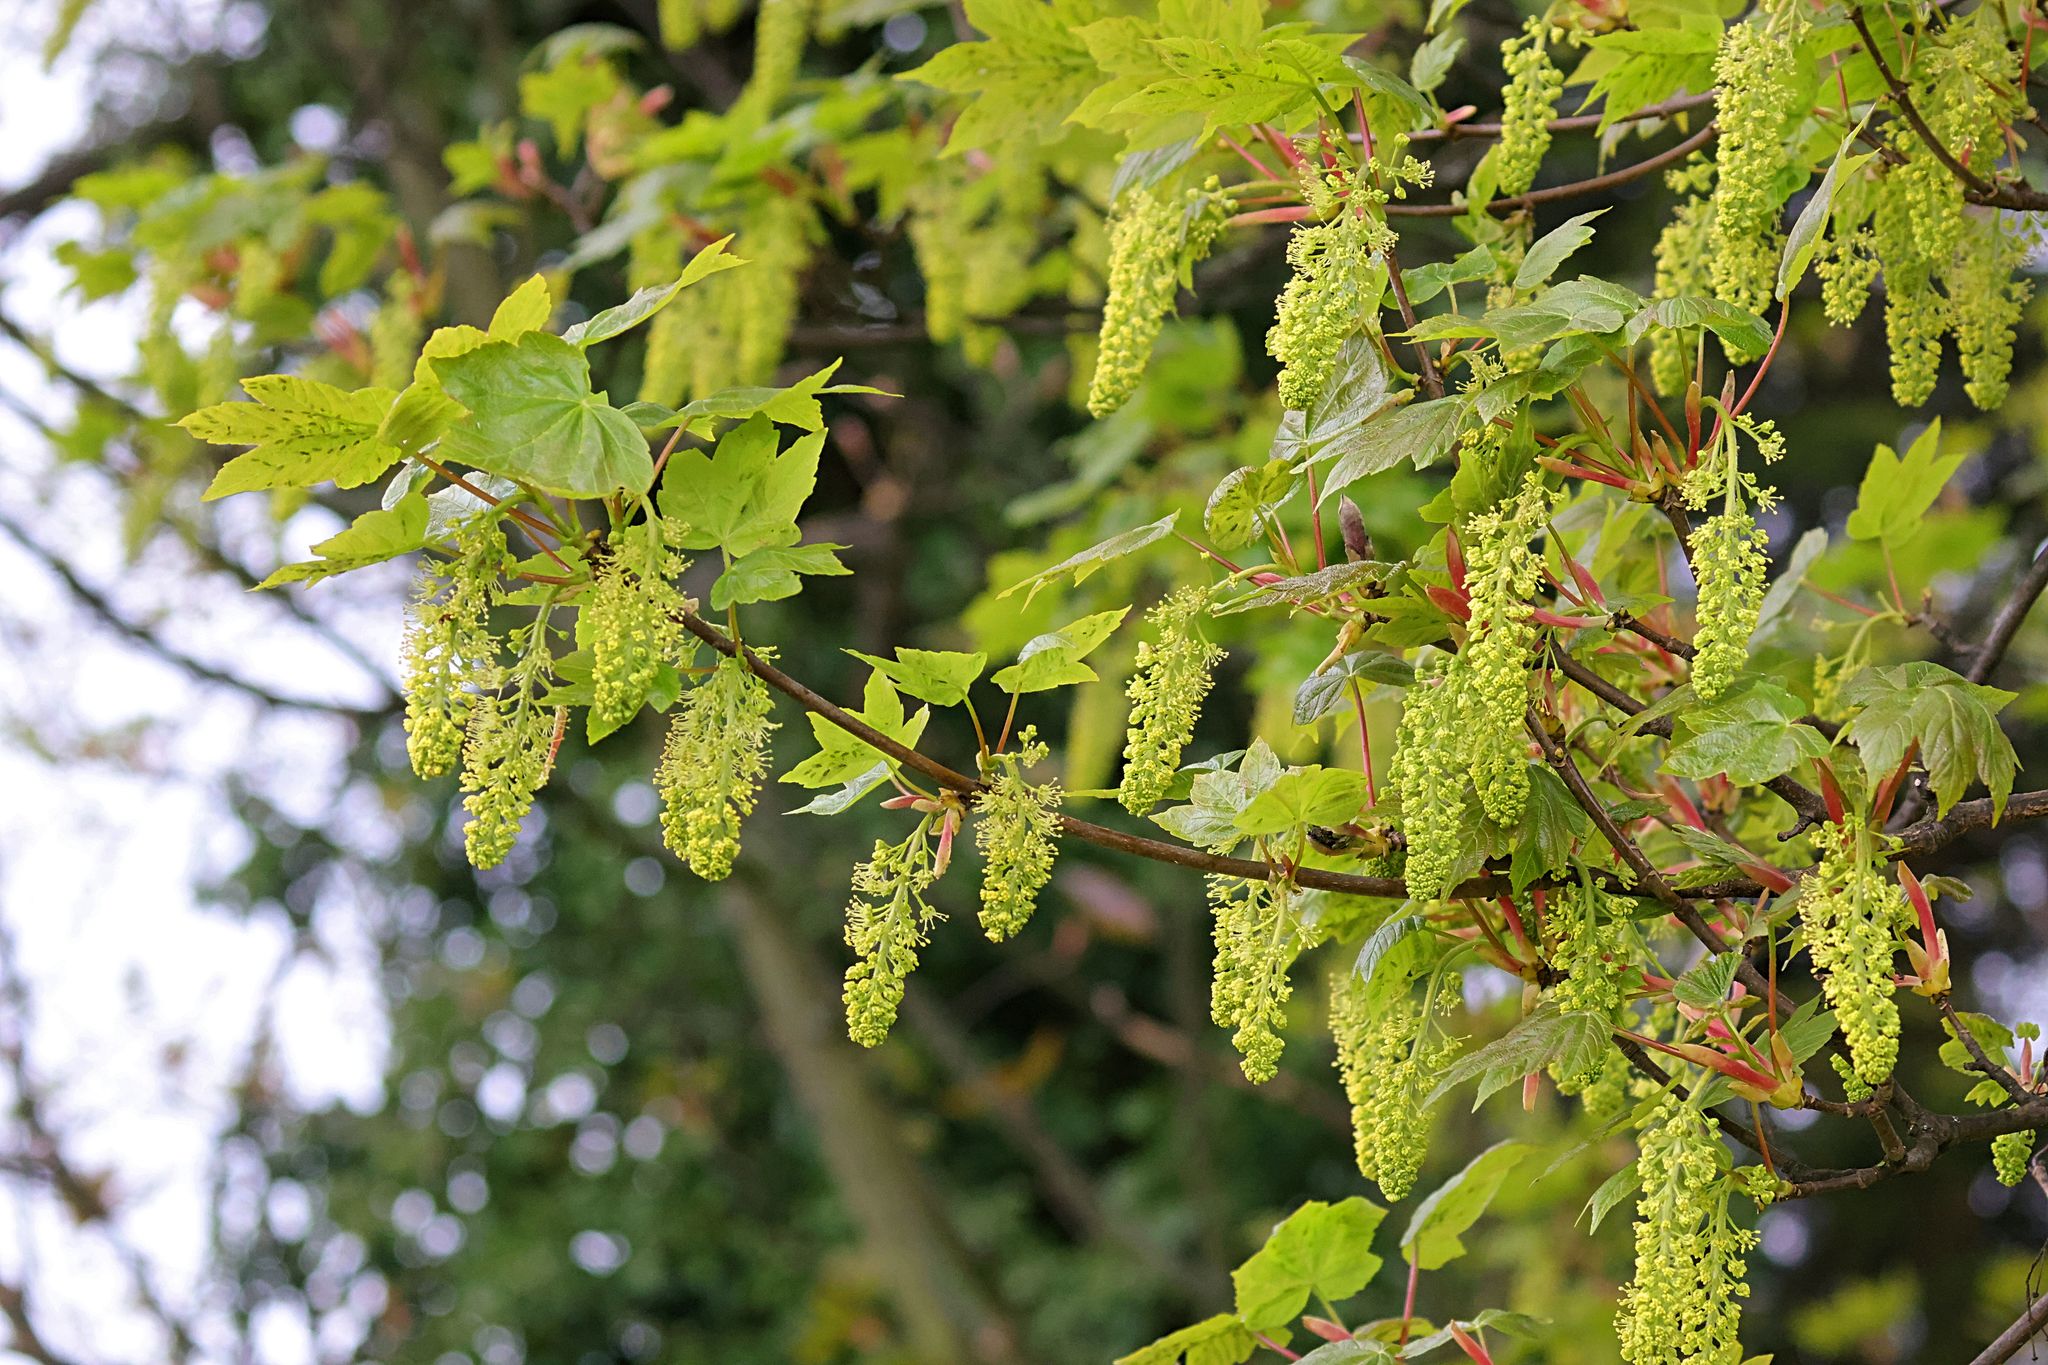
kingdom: Plantae
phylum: Tracheophyta
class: Magnoliopsida
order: Sapindales
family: Sapindaceae
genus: Acer
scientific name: Acer pseudoplatanus
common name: Sycamore
